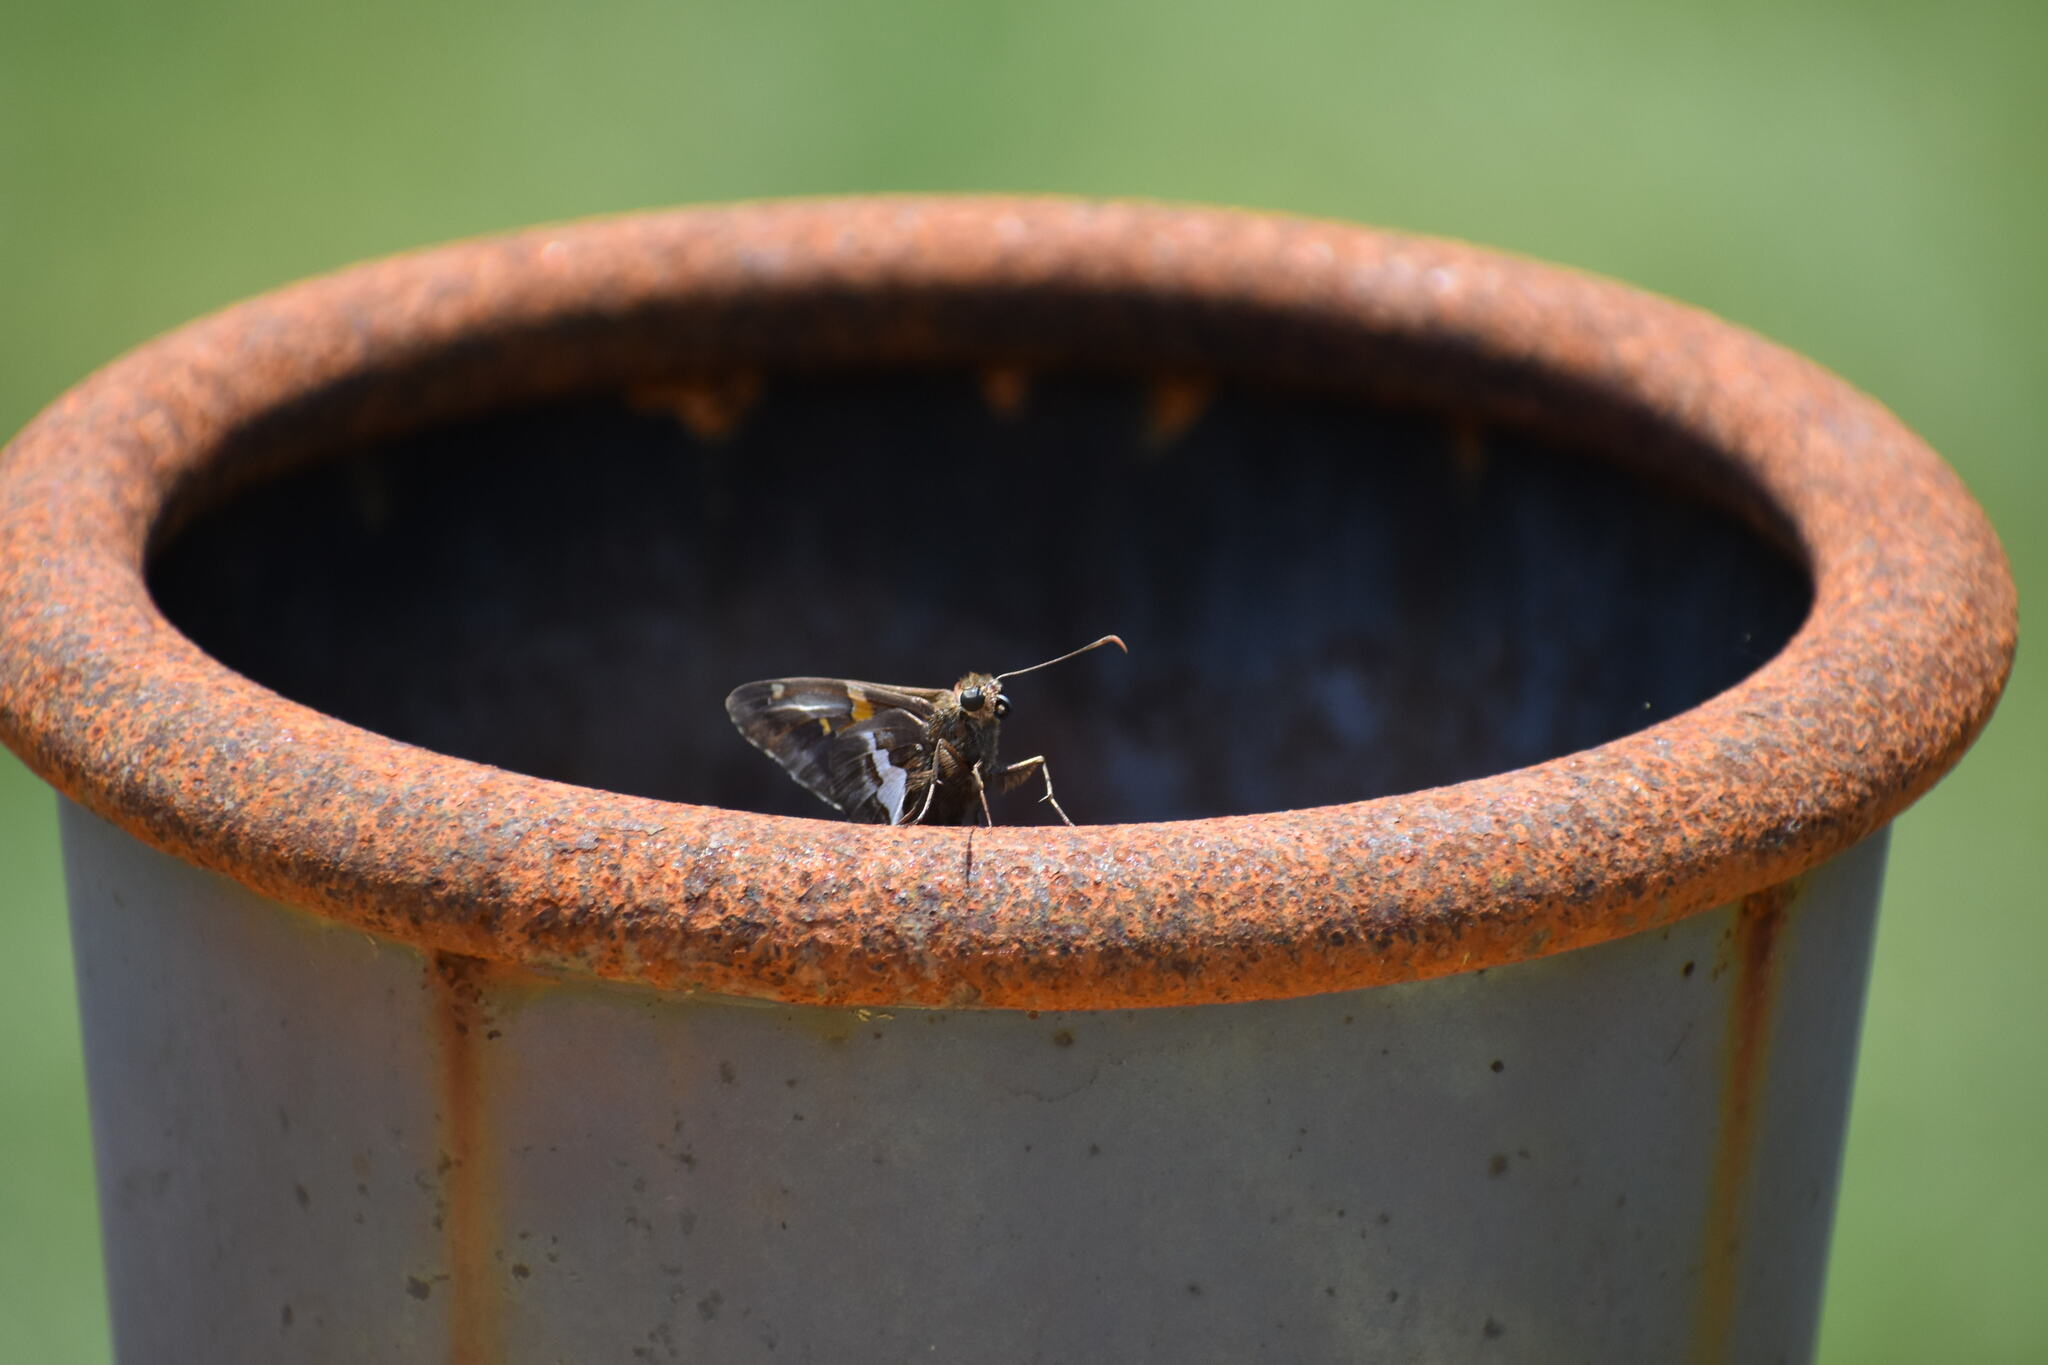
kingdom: Animalia
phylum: Arthropoda
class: Insecta
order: Lepidoptera
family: Hesperiidae
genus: Epargyreus
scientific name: Epargyreus clarus
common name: Silver-spotted skipper
